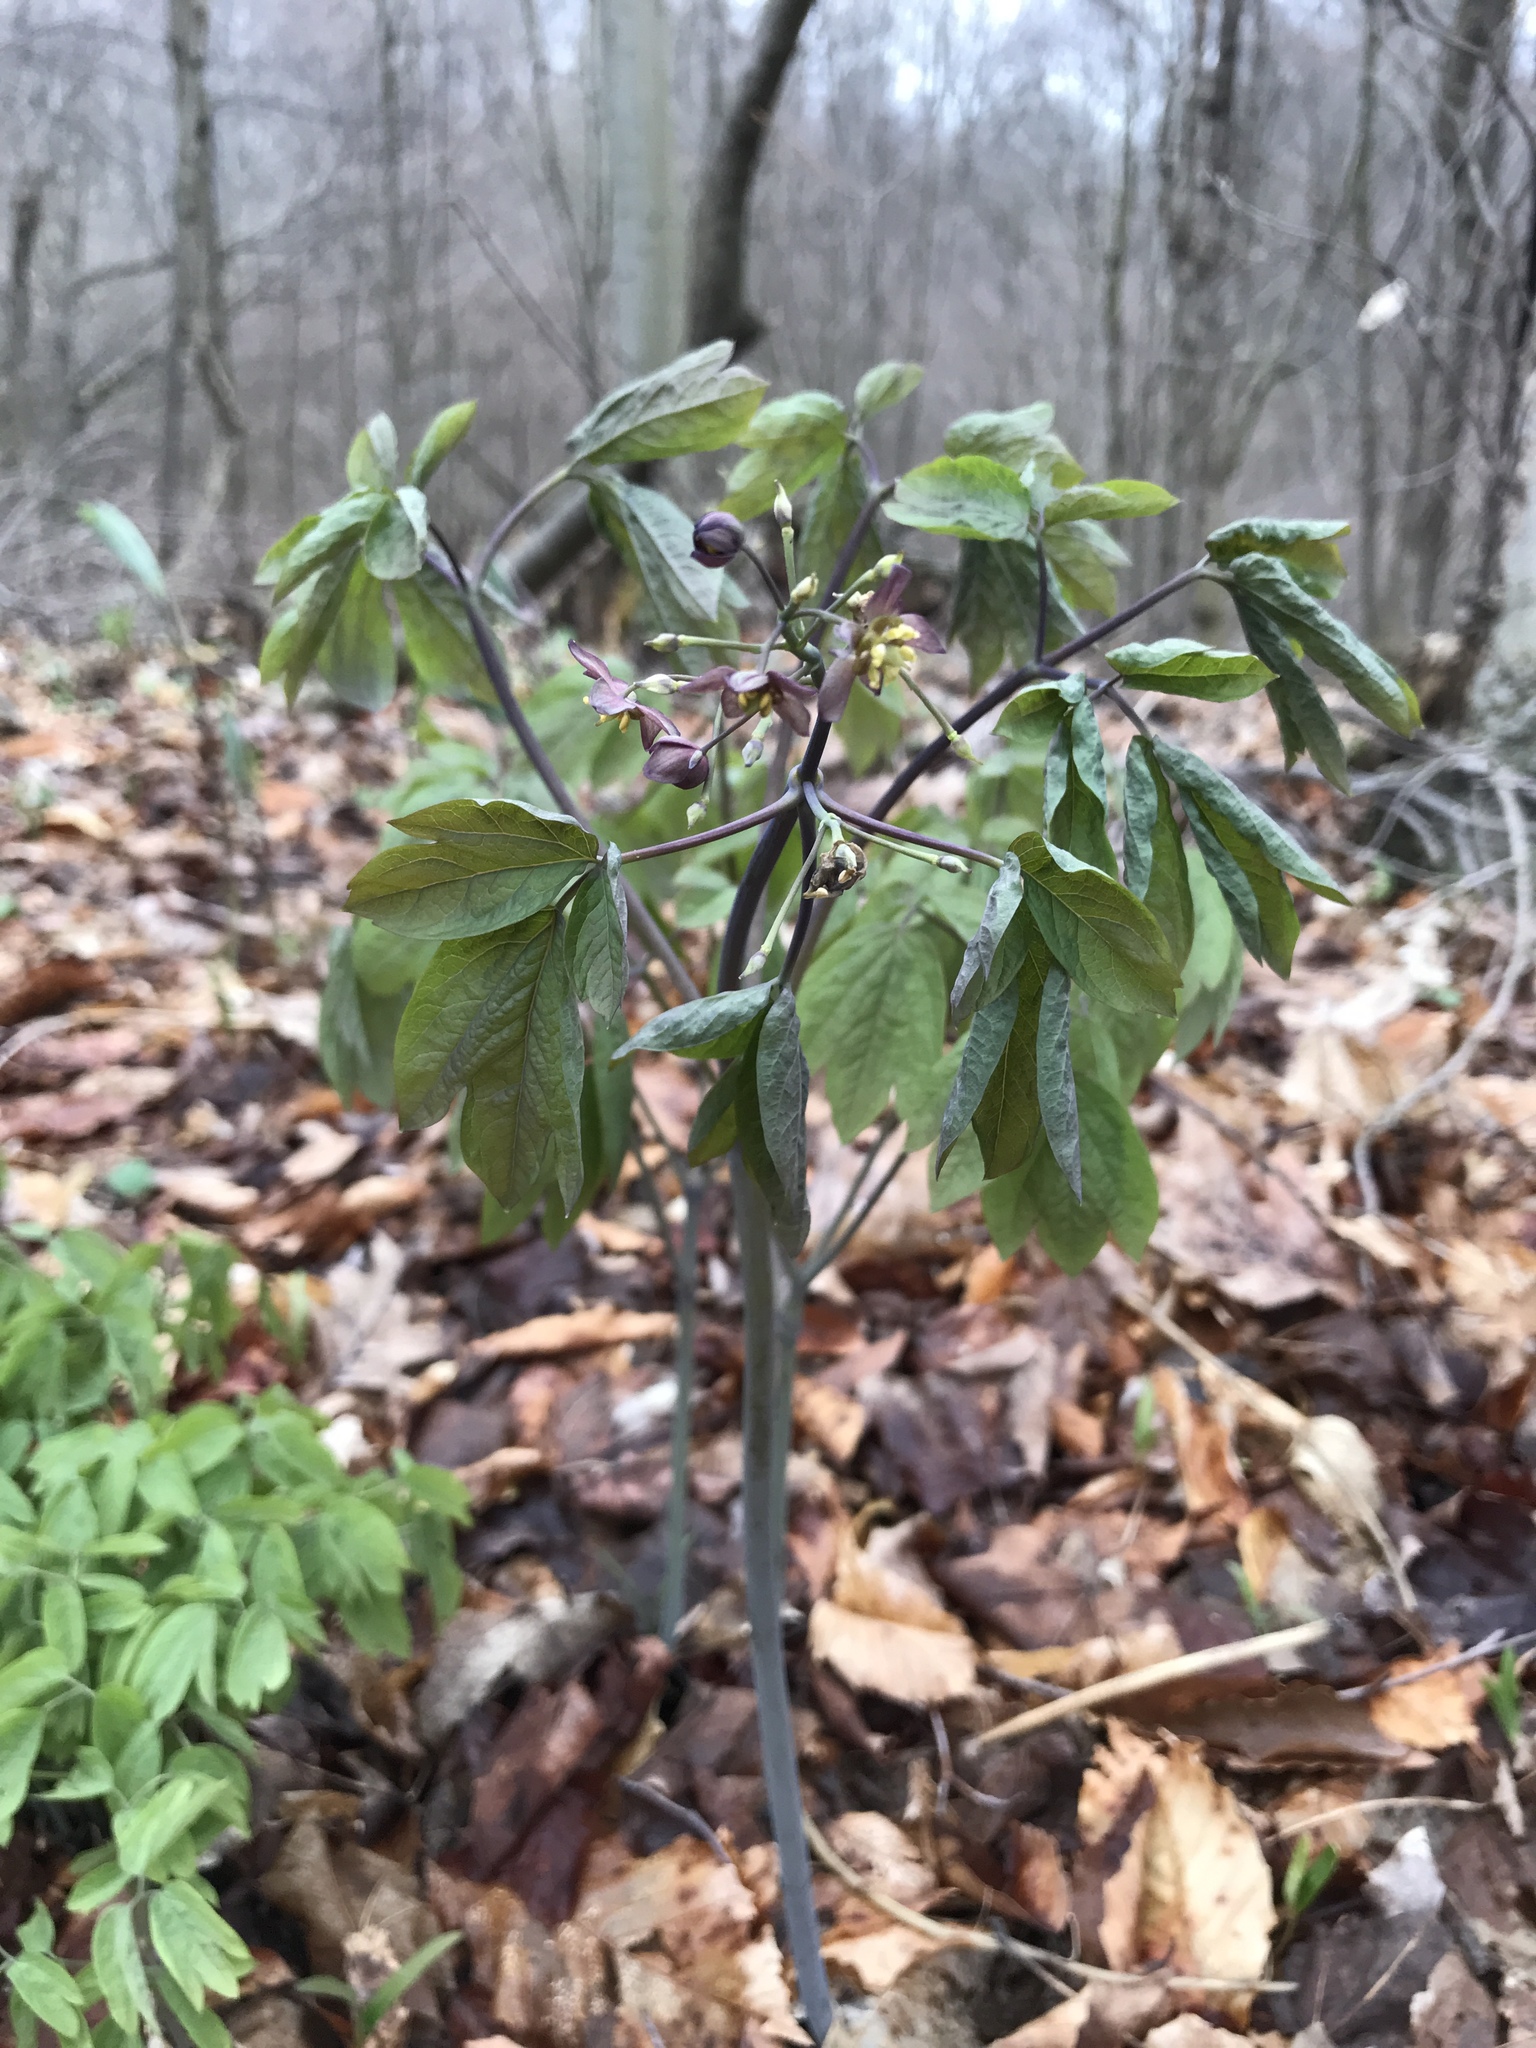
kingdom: Plantae
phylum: Tracheophyta
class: Magnoliopsida
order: Ranunculales
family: Berberidaceae
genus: Caulophyllum
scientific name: Caulophyllum giganteum
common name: Blue cohosh
